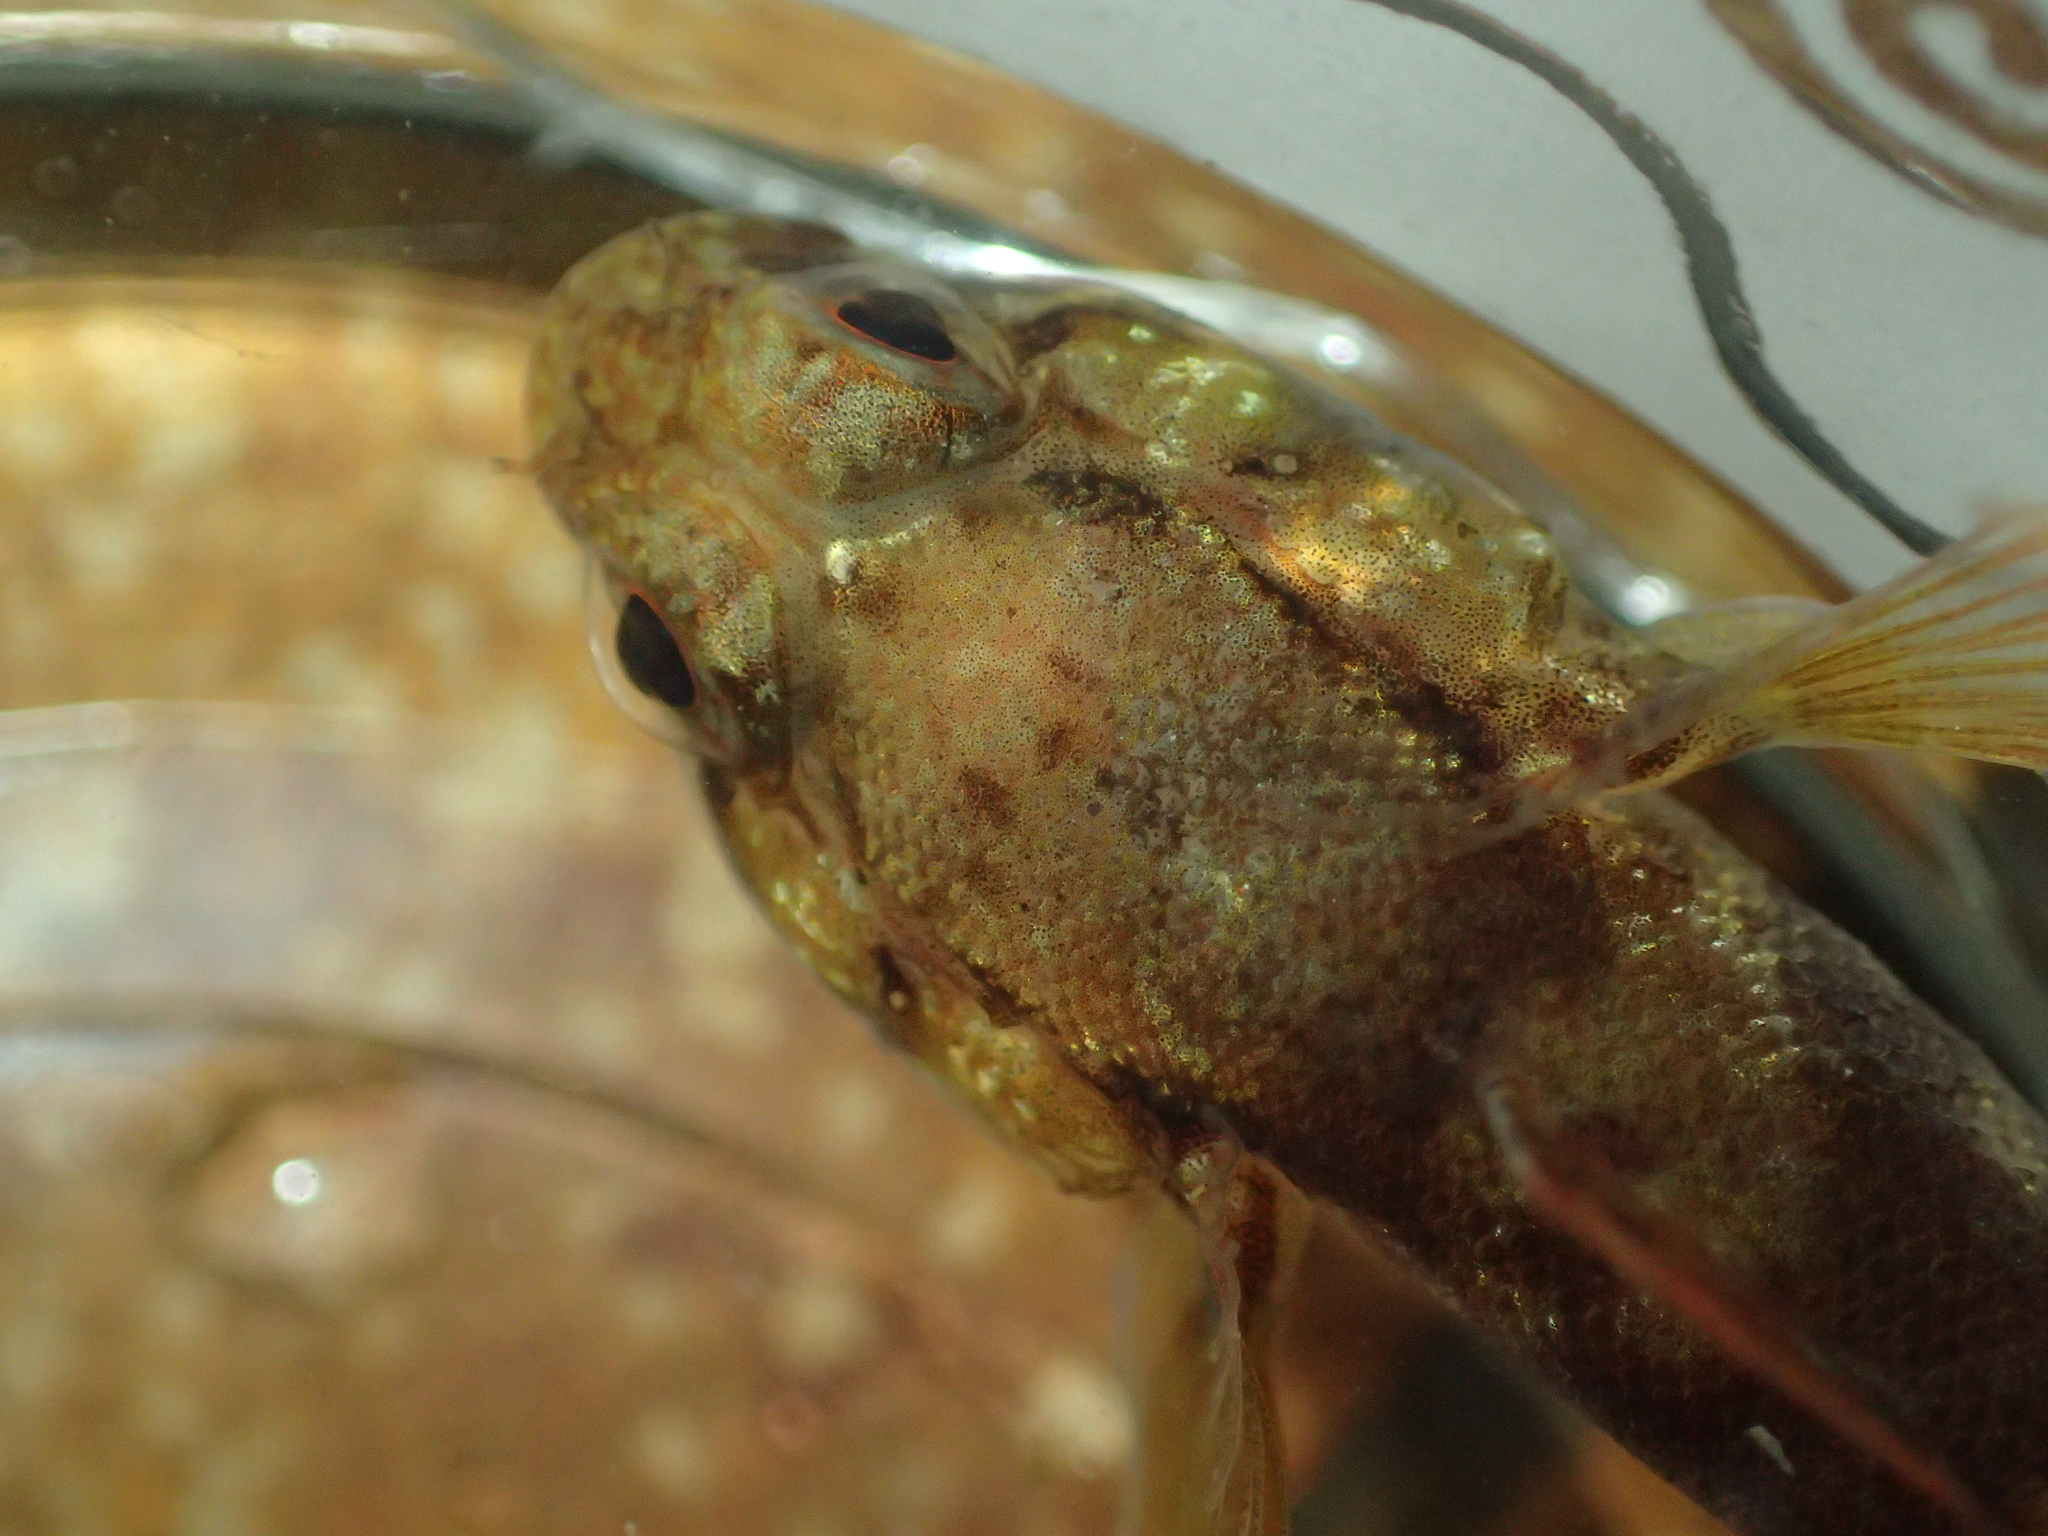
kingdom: Animalia
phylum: Chordata
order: Perciformes
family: Gobiidae
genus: Gobius
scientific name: Gobius paganellus
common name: Rock goby
